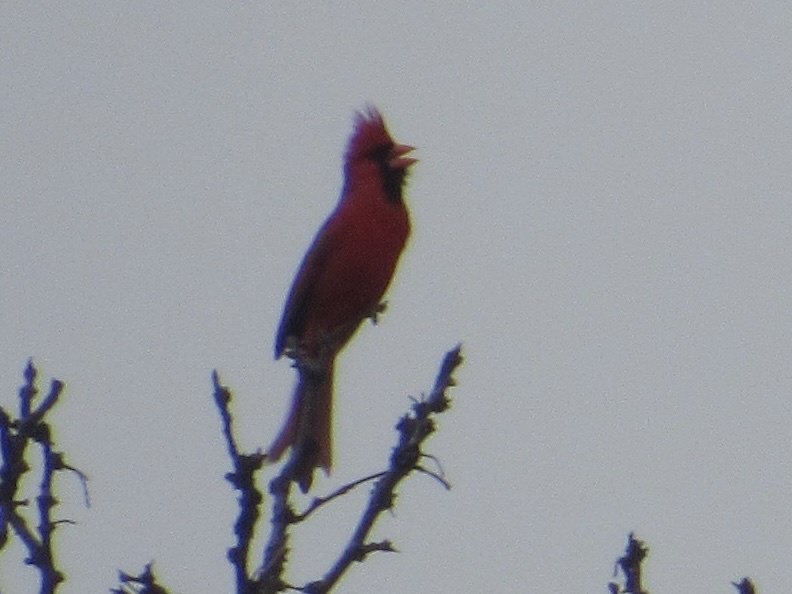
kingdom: Animalia
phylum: Chordata
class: Aves
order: Passeriformes
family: Cardinalidae
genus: Cardinalis
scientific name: Cardinalis cardinalis
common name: Northern cardinal
